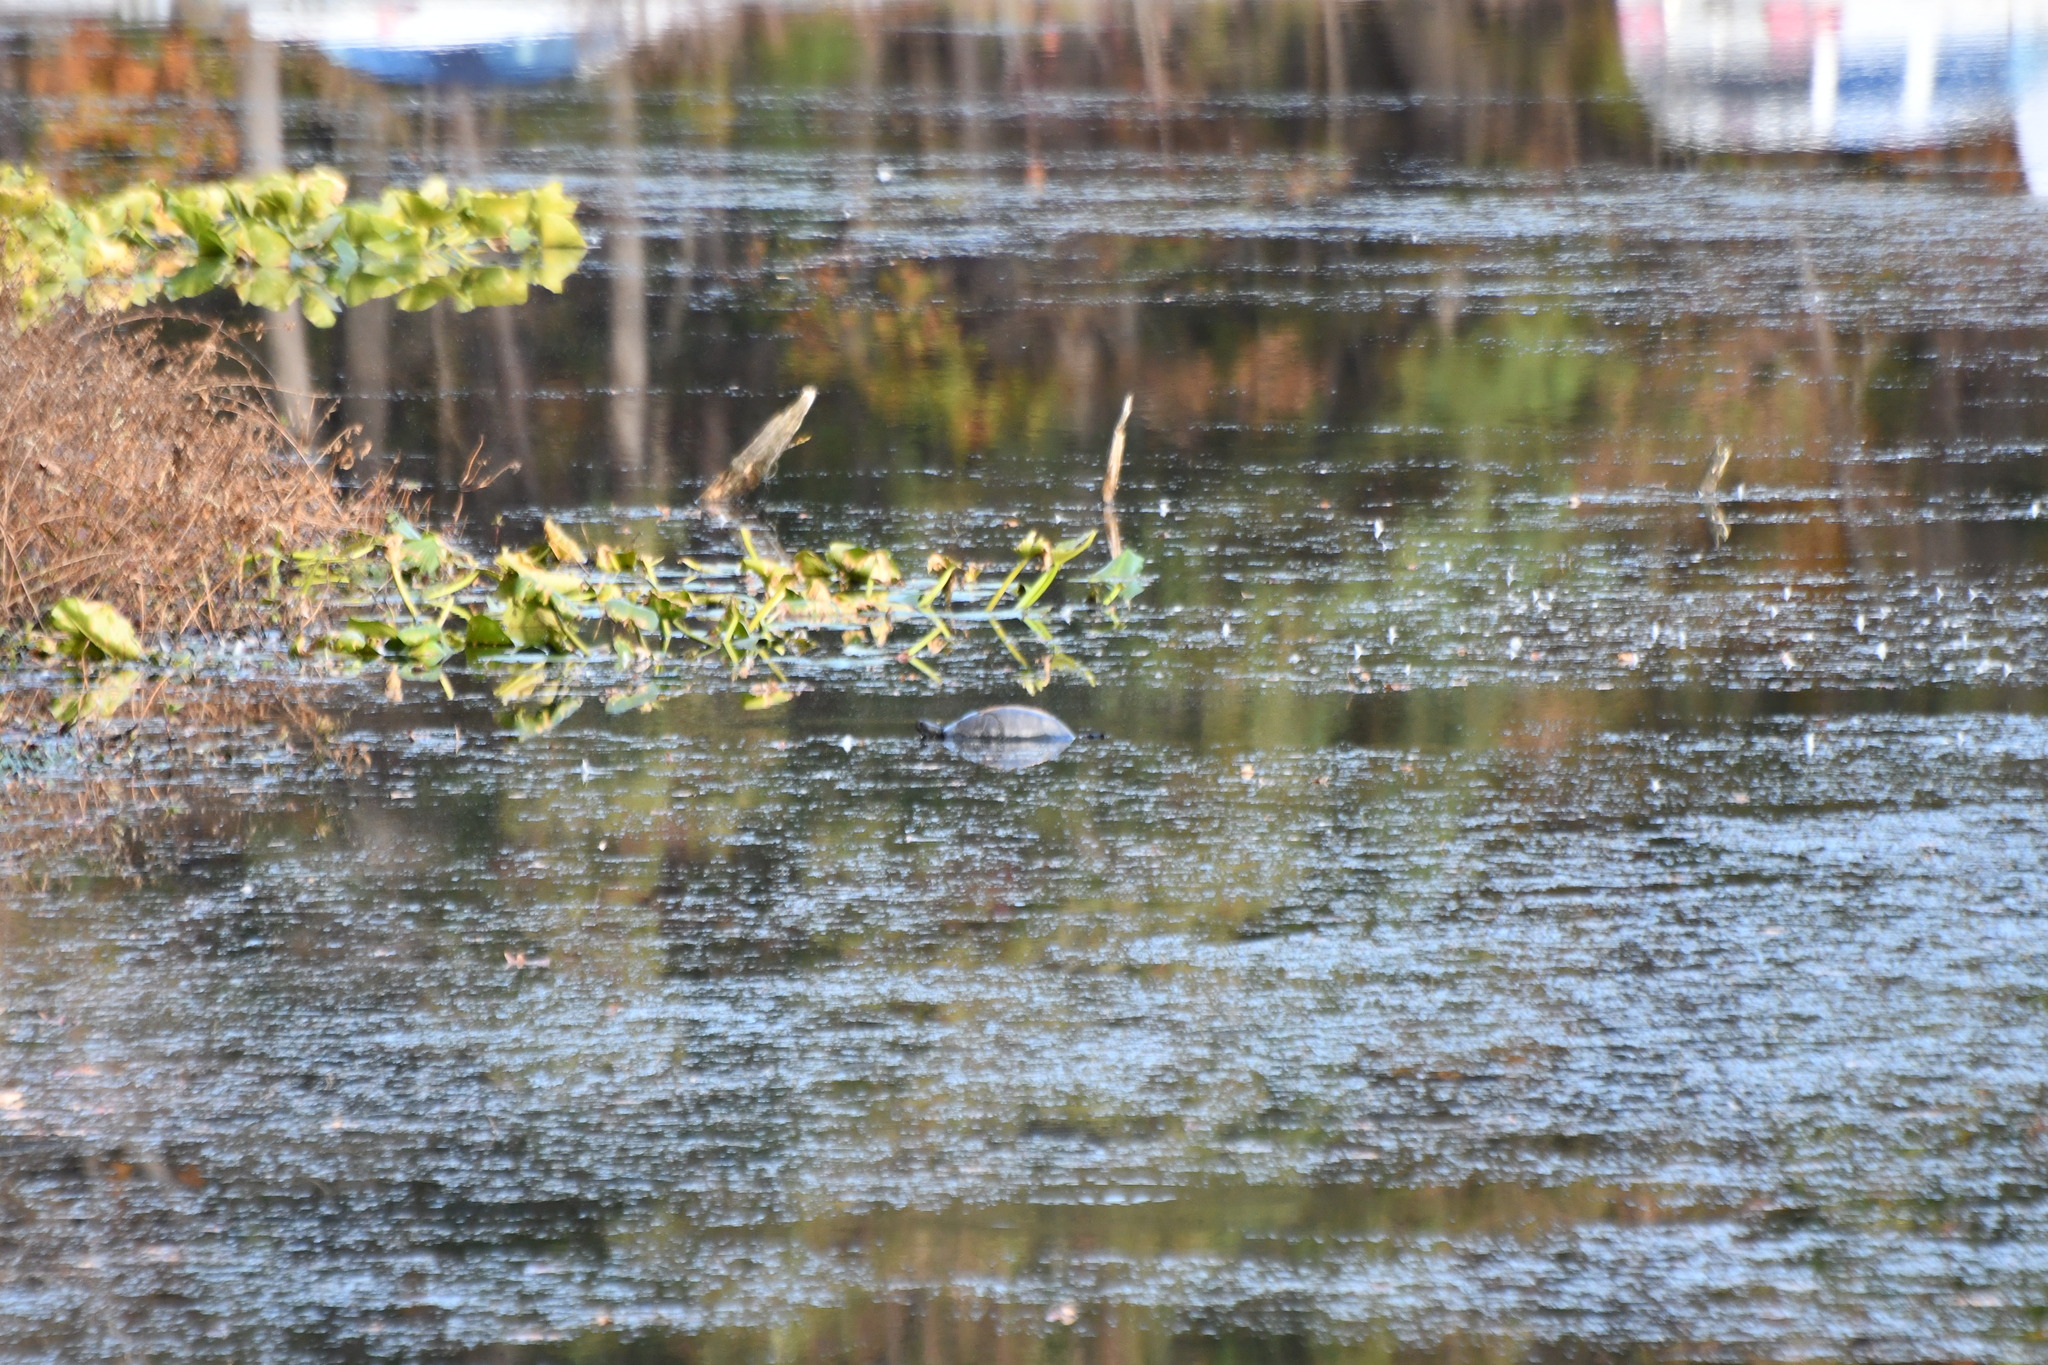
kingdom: Animalia
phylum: Chordata
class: Testudines
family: Emydidae
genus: Pseudemys
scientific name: Pseudemys rubriventris
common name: American red-bellied turtle
